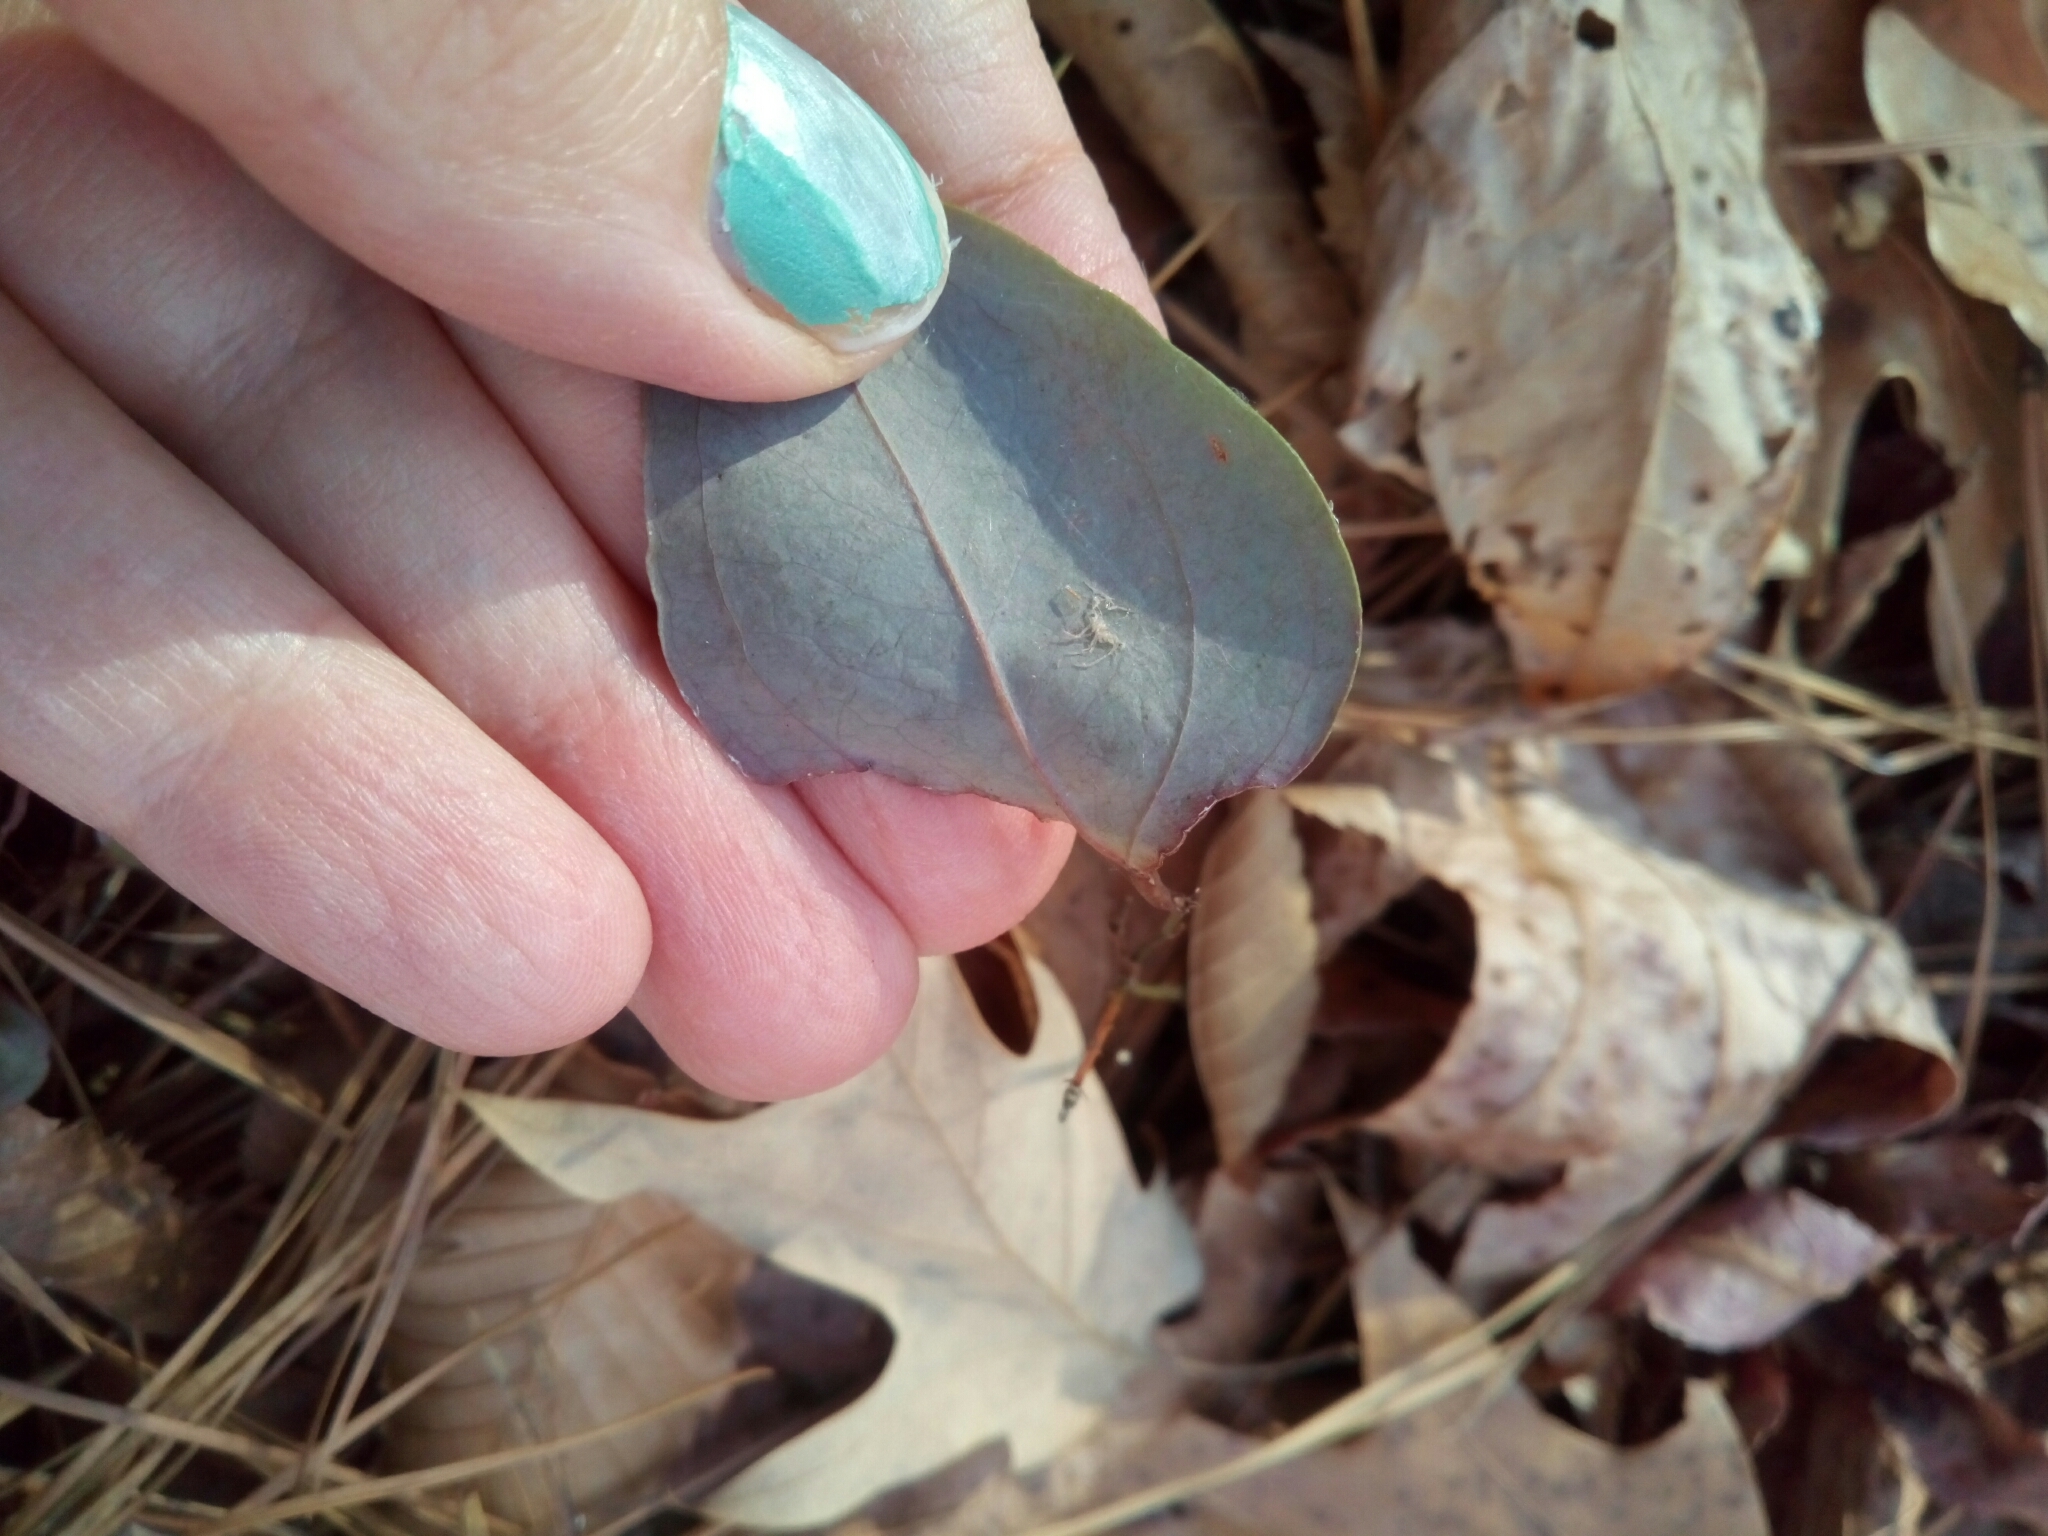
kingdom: Plantae
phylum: Tracheophyta
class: Liliopsida
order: Liliales
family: Smilacaceae
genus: Smilax
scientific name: Smilax glauca
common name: Cat greenbrier
